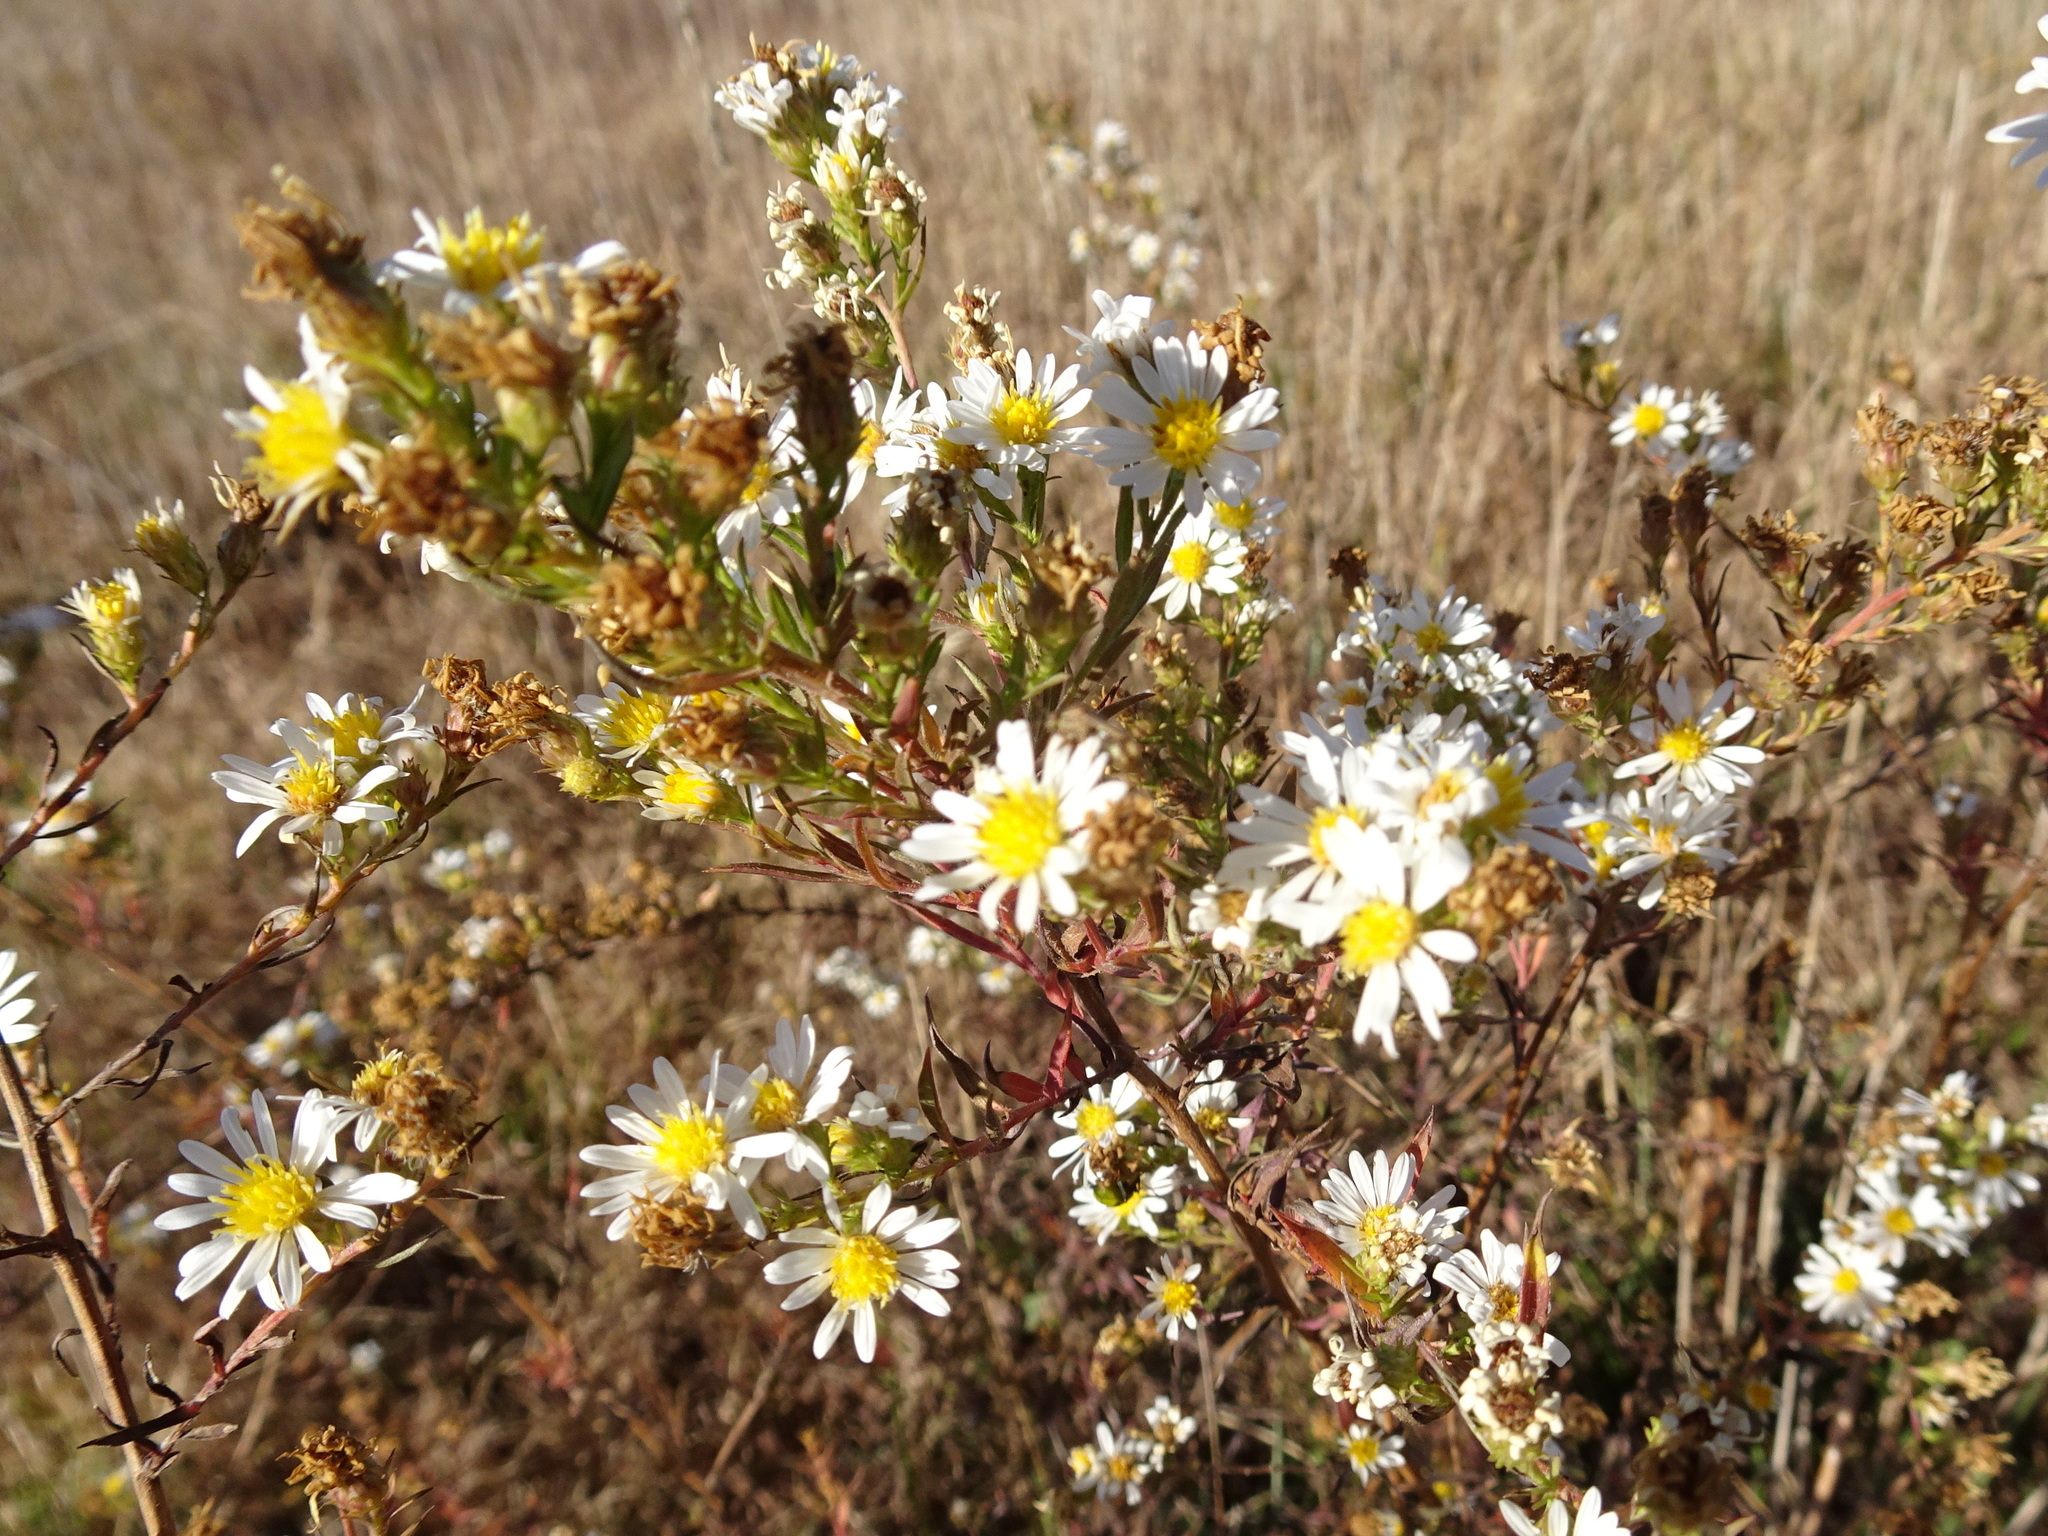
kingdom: Plantae
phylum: Tracheophyta
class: Magnoliopsida
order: Asterales
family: Asteraceae
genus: Symphyotrichum
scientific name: Symphyotrichum pilosum
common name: Awl aster
